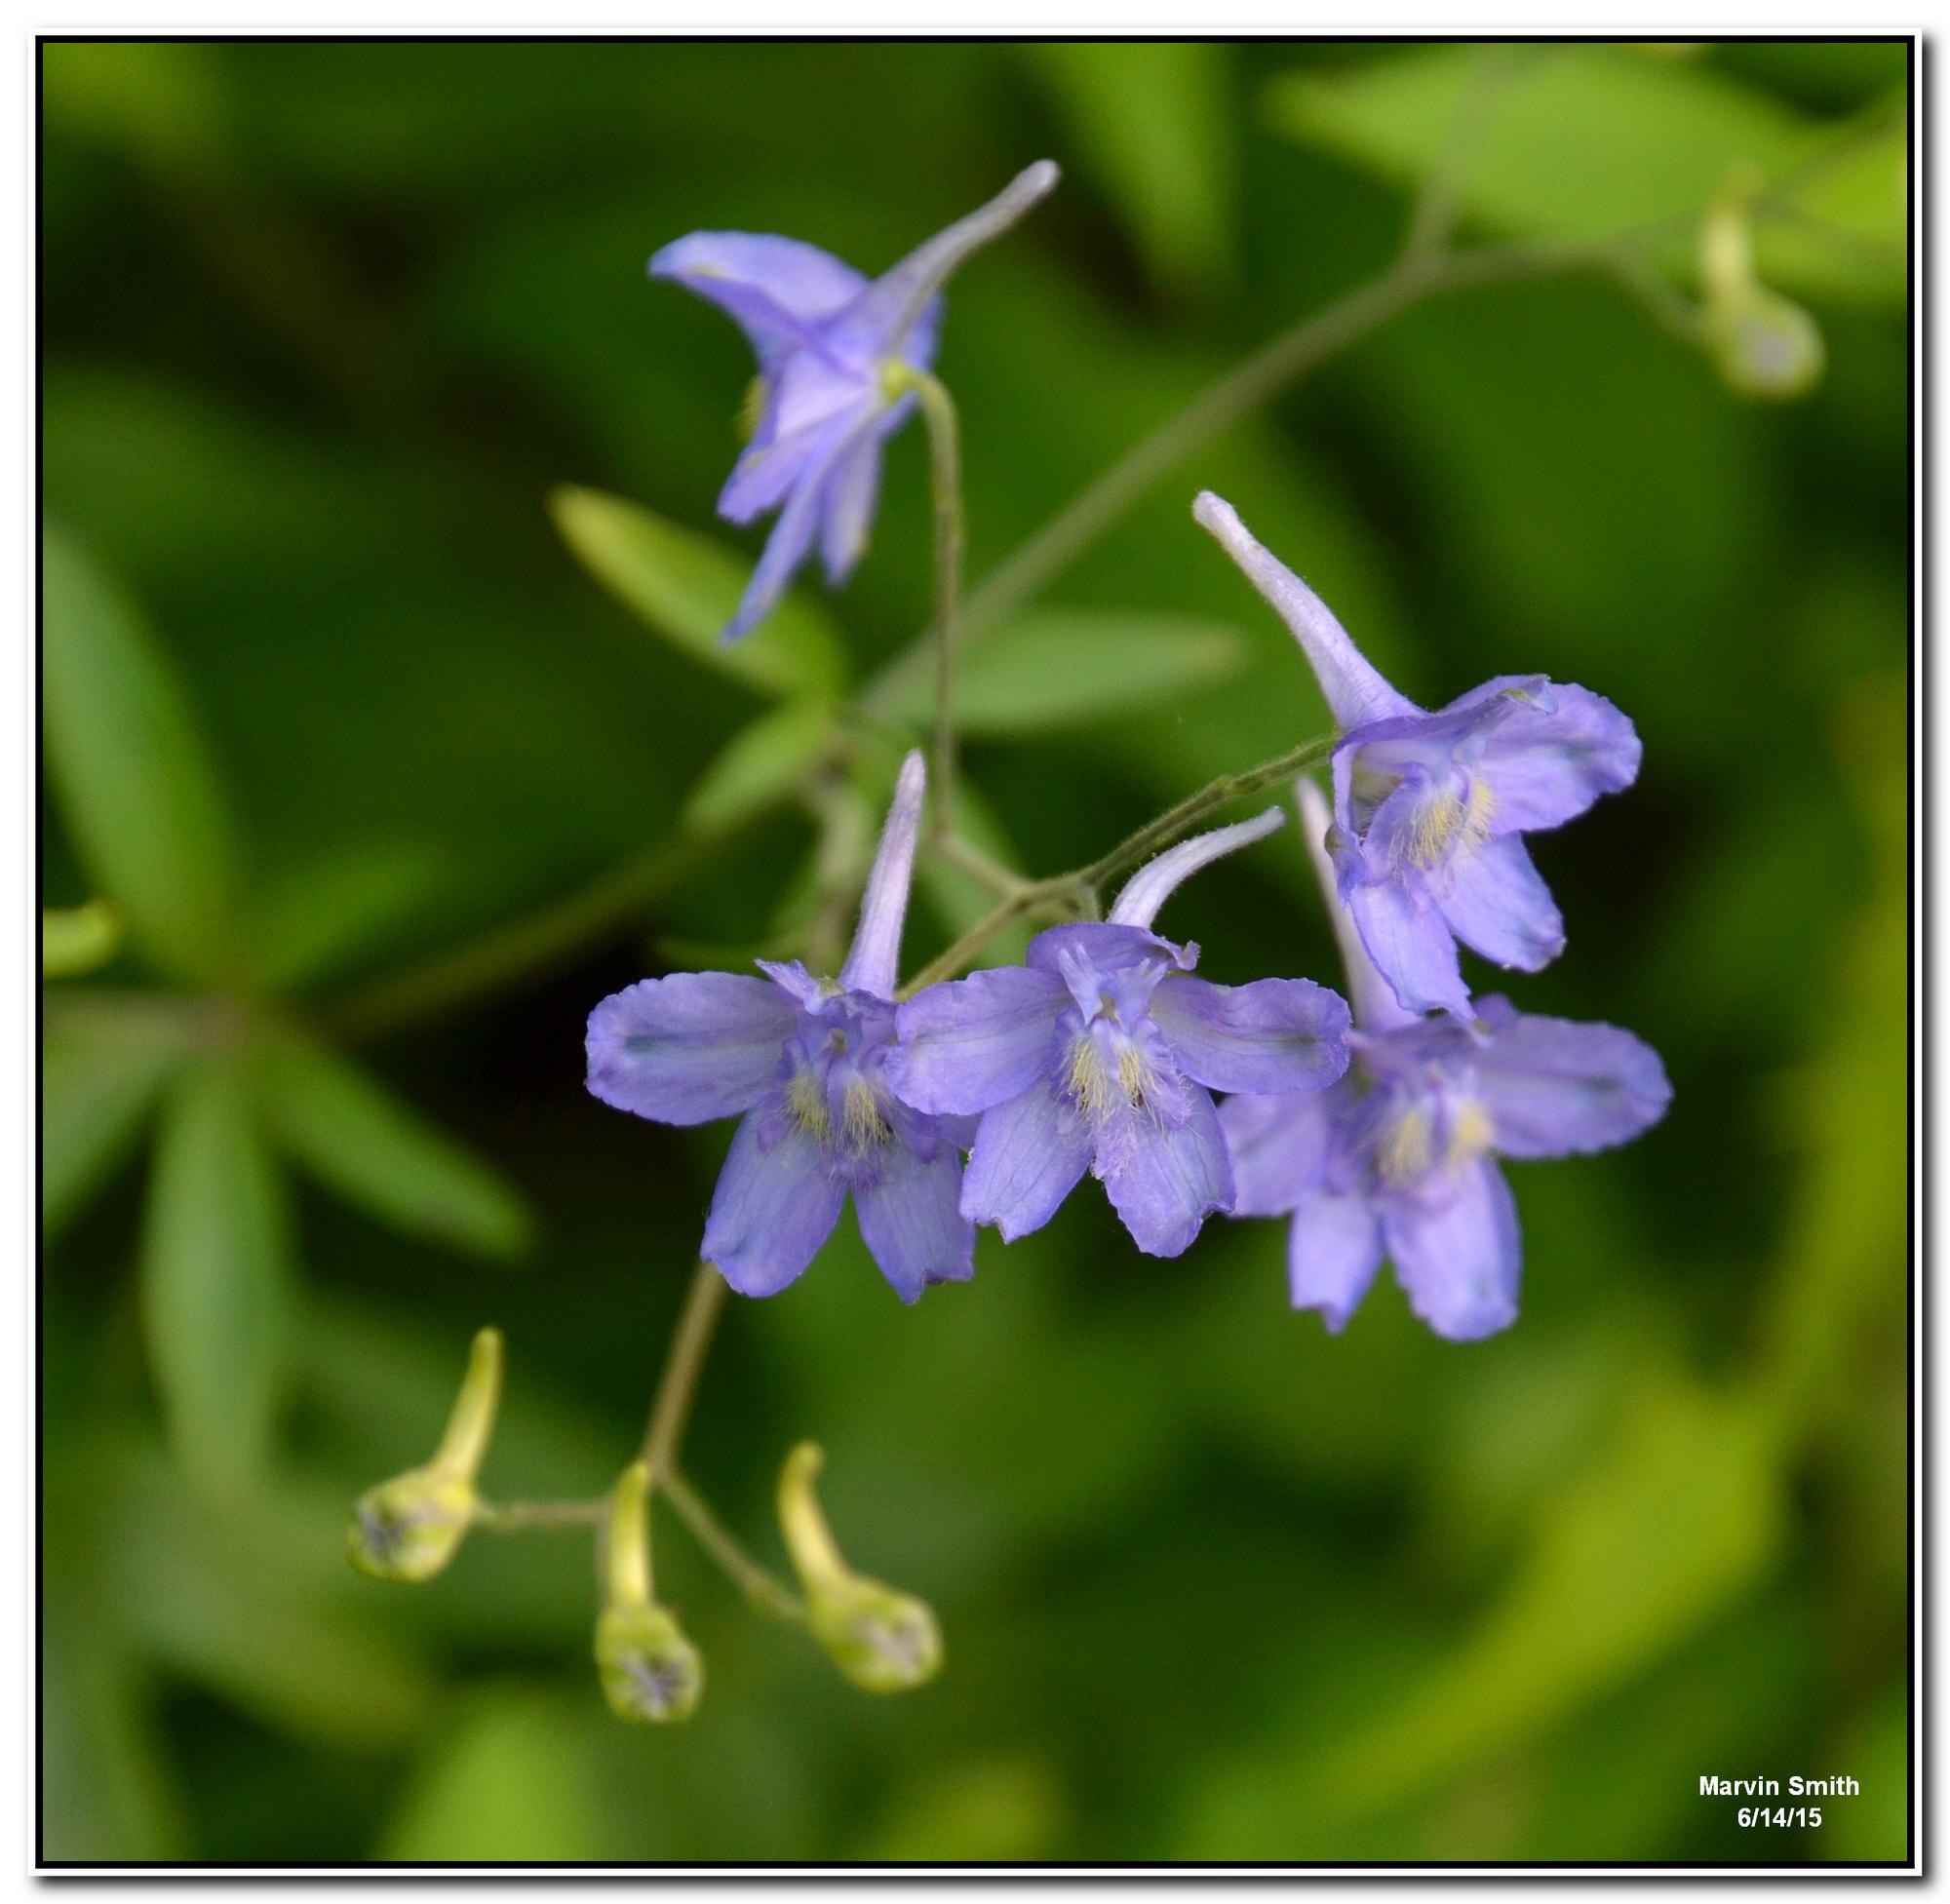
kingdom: Plantae
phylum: Tracheophyta
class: Magnoliopsida
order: Ranunculales
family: Ranunculaceae
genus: Delphinium
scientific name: Delphinium newtonianum
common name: Ozark larkspur
